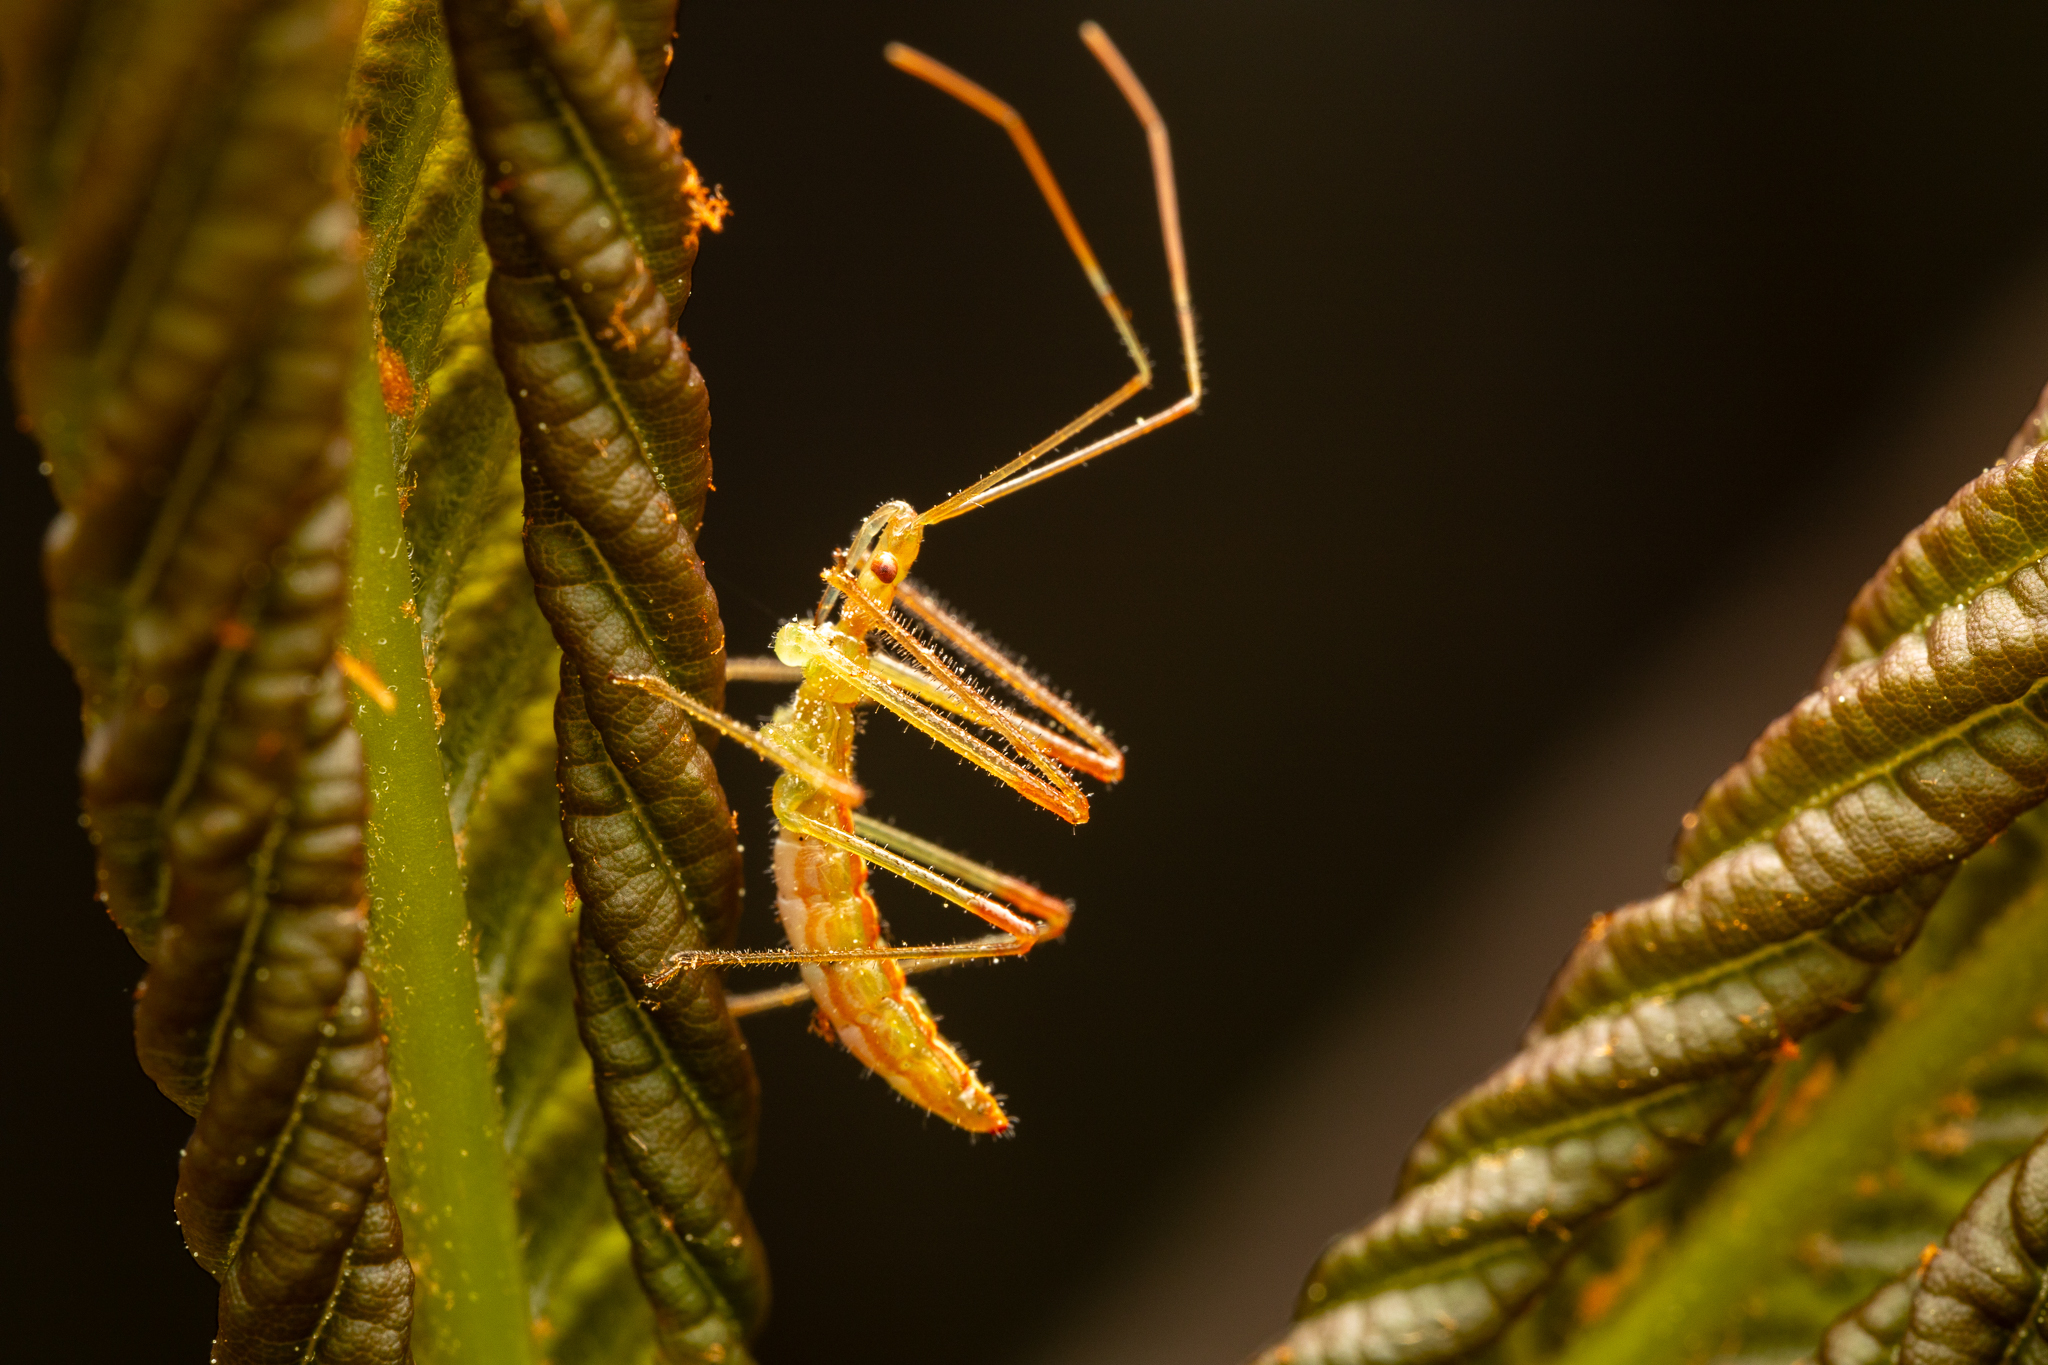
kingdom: Animalia
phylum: Arthropoda
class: Insecta
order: Hemiptera
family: Reduviidae
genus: Zelus
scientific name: Zelus luridus
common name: Pale green assassin bug
